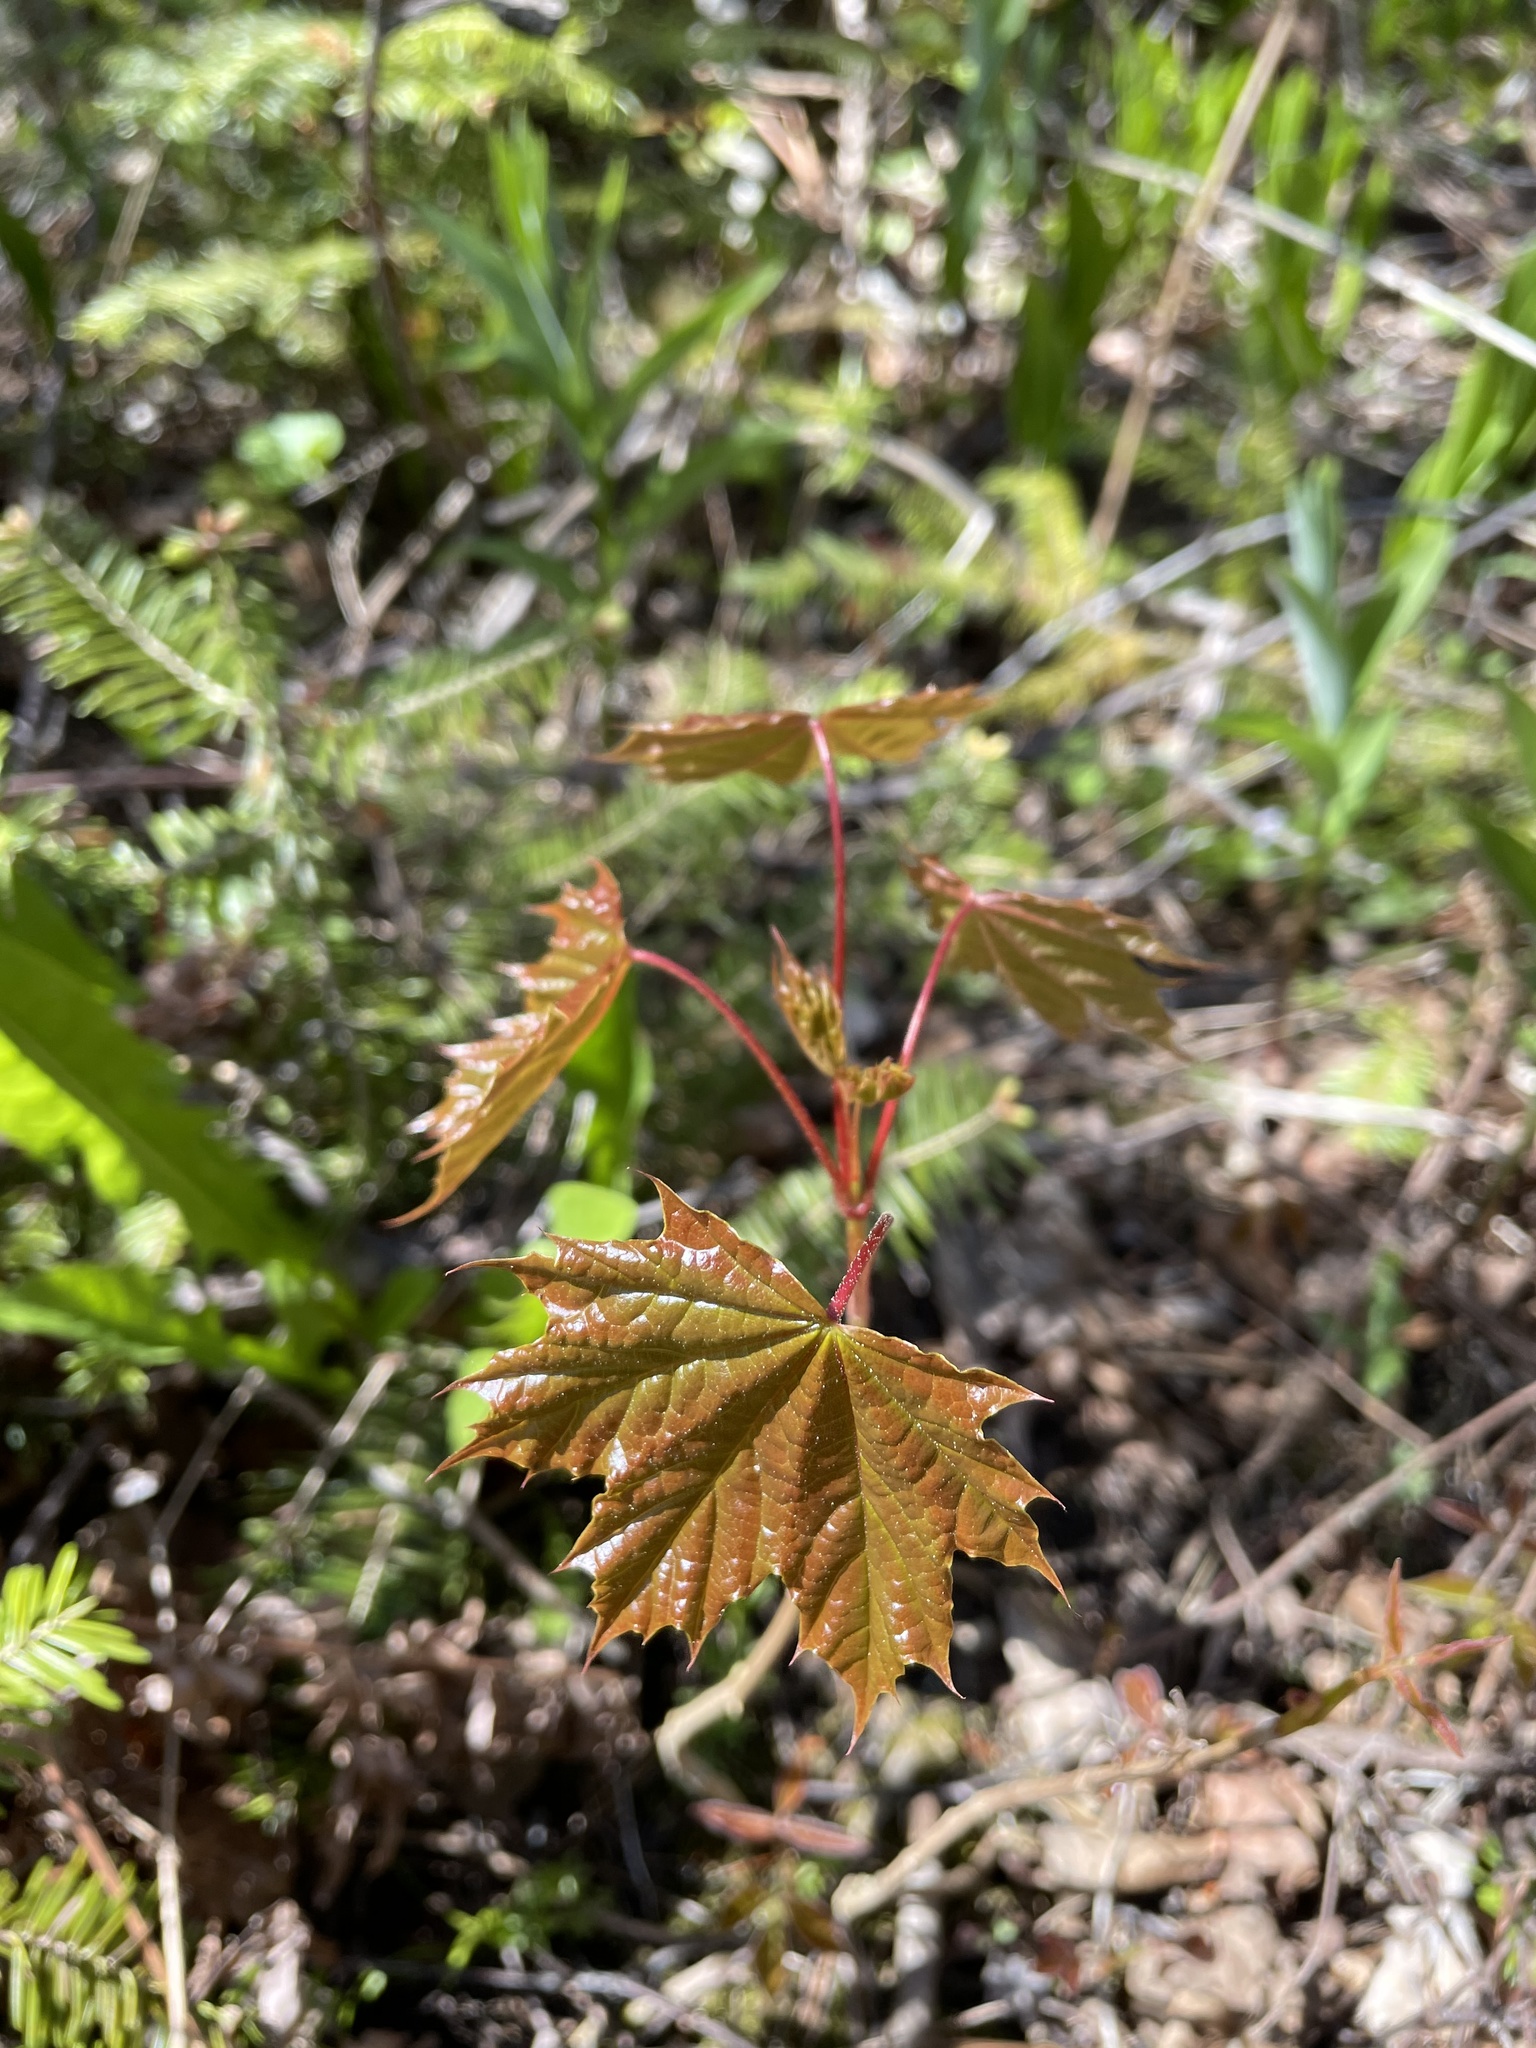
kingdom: Plantae
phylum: Tracheophyta
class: Magnoliopsida
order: Sapindales
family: Sapindaceae
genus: Acer
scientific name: Acer platanoides
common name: Norway maple
